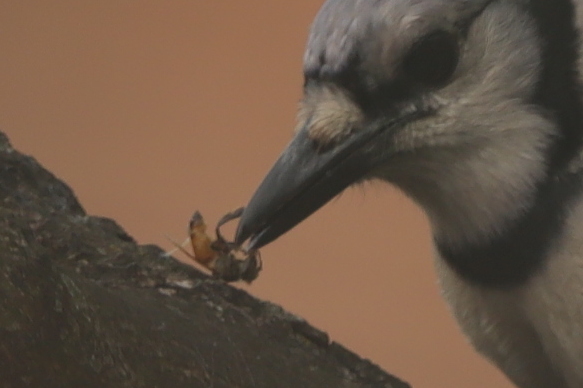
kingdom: Animalia
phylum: Arthropoda
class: Insecta
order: Hymenoptera
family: Apidae
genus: Apis
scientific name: Apis mellifera
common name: Honey bee
